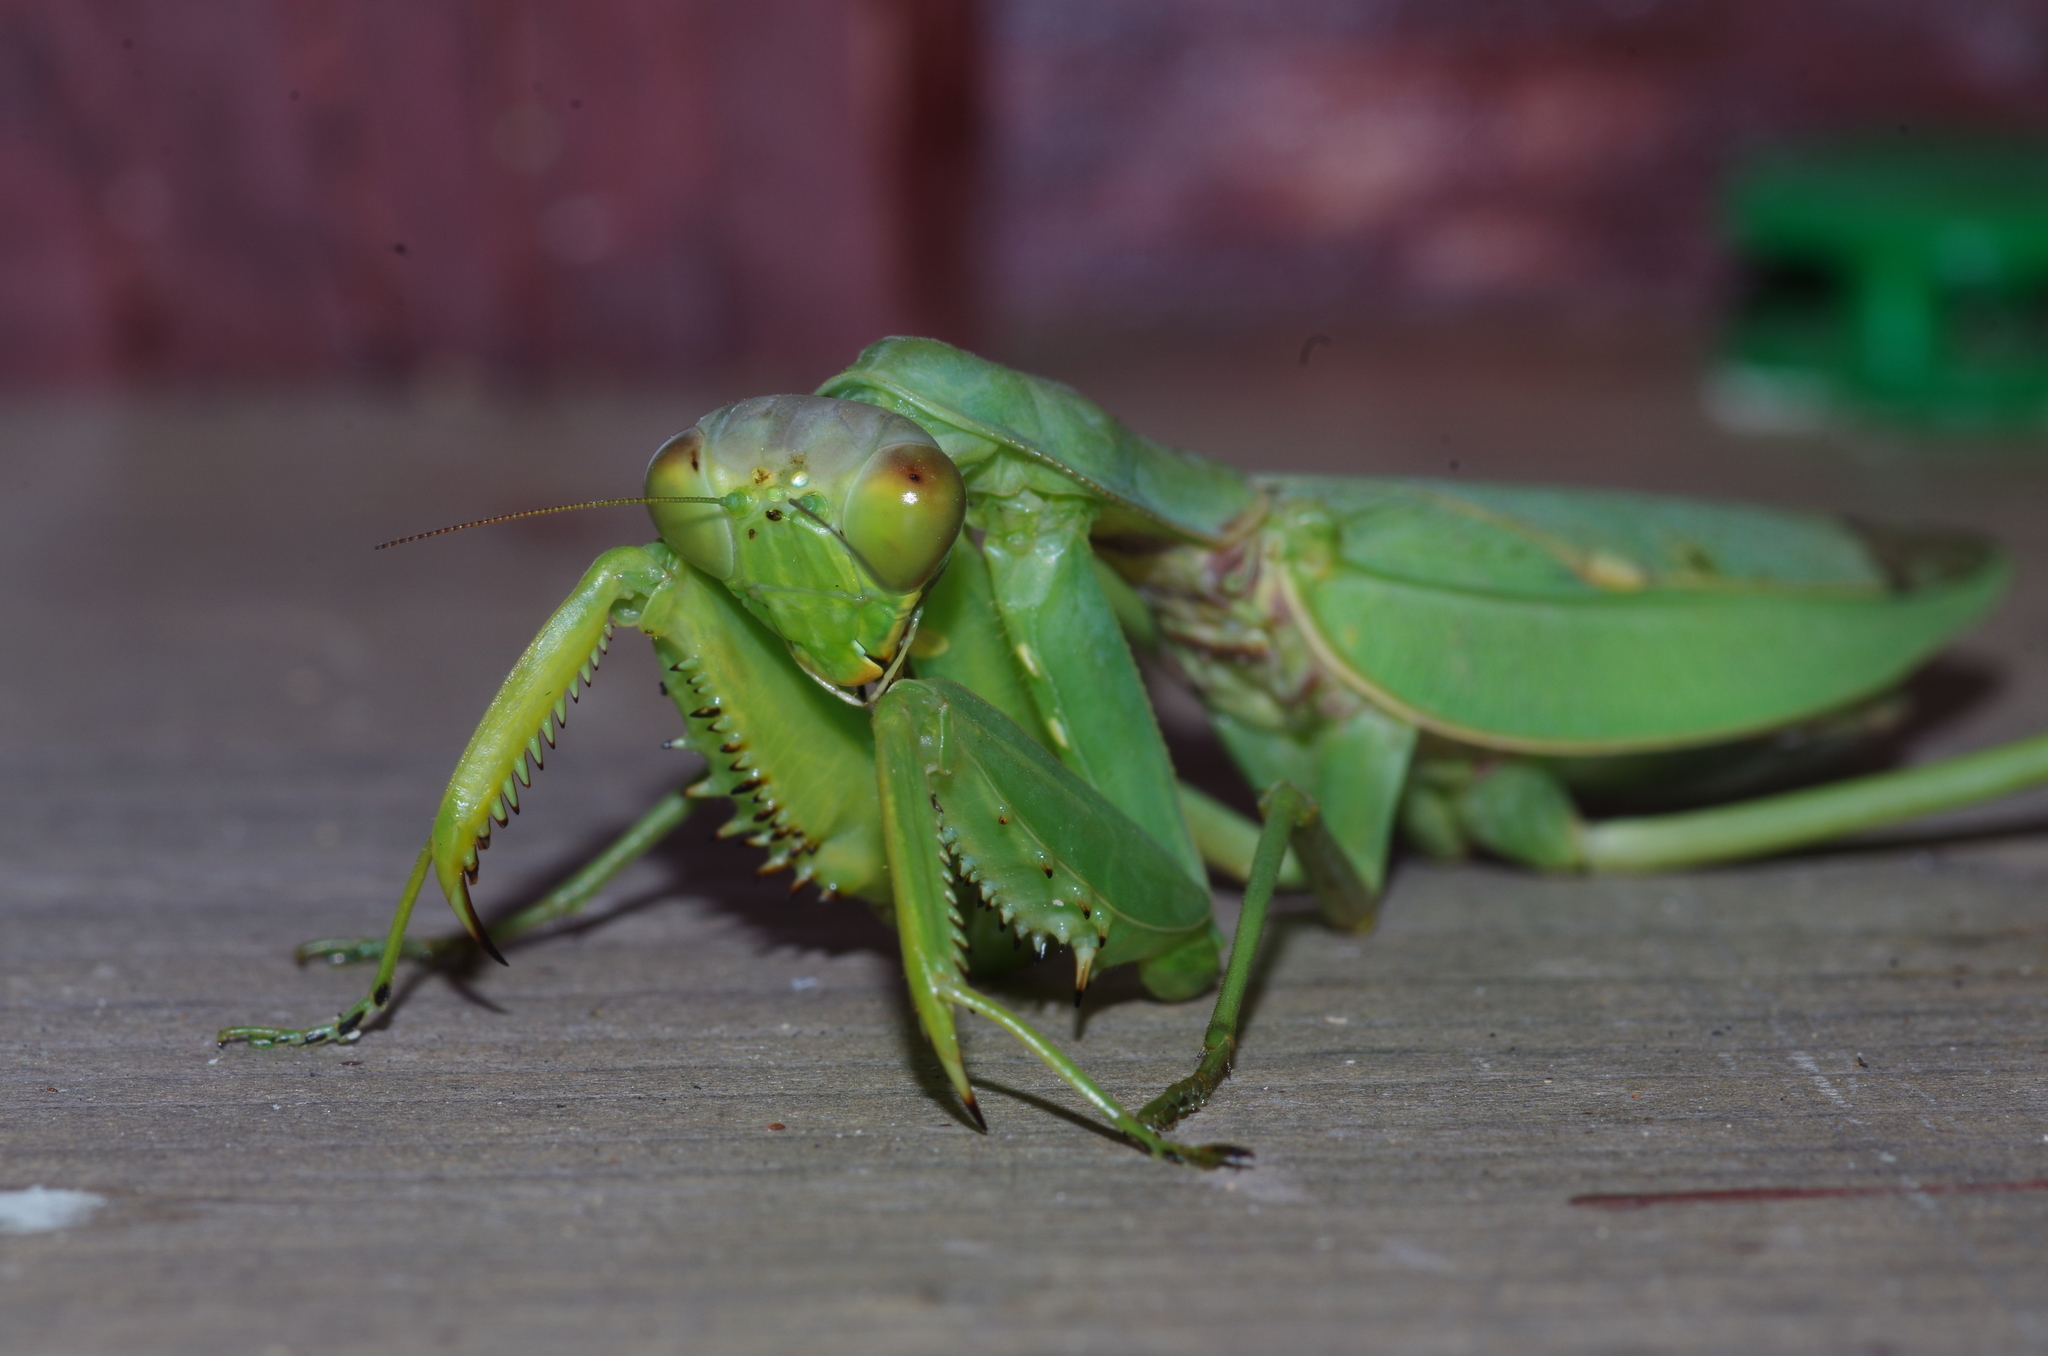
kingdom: Animalia
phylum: Arthropoda
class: Insecta
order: Mantodea
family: Mantidae
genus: Hierodula
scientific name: Hierodula patellifera
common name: Asian mantis
